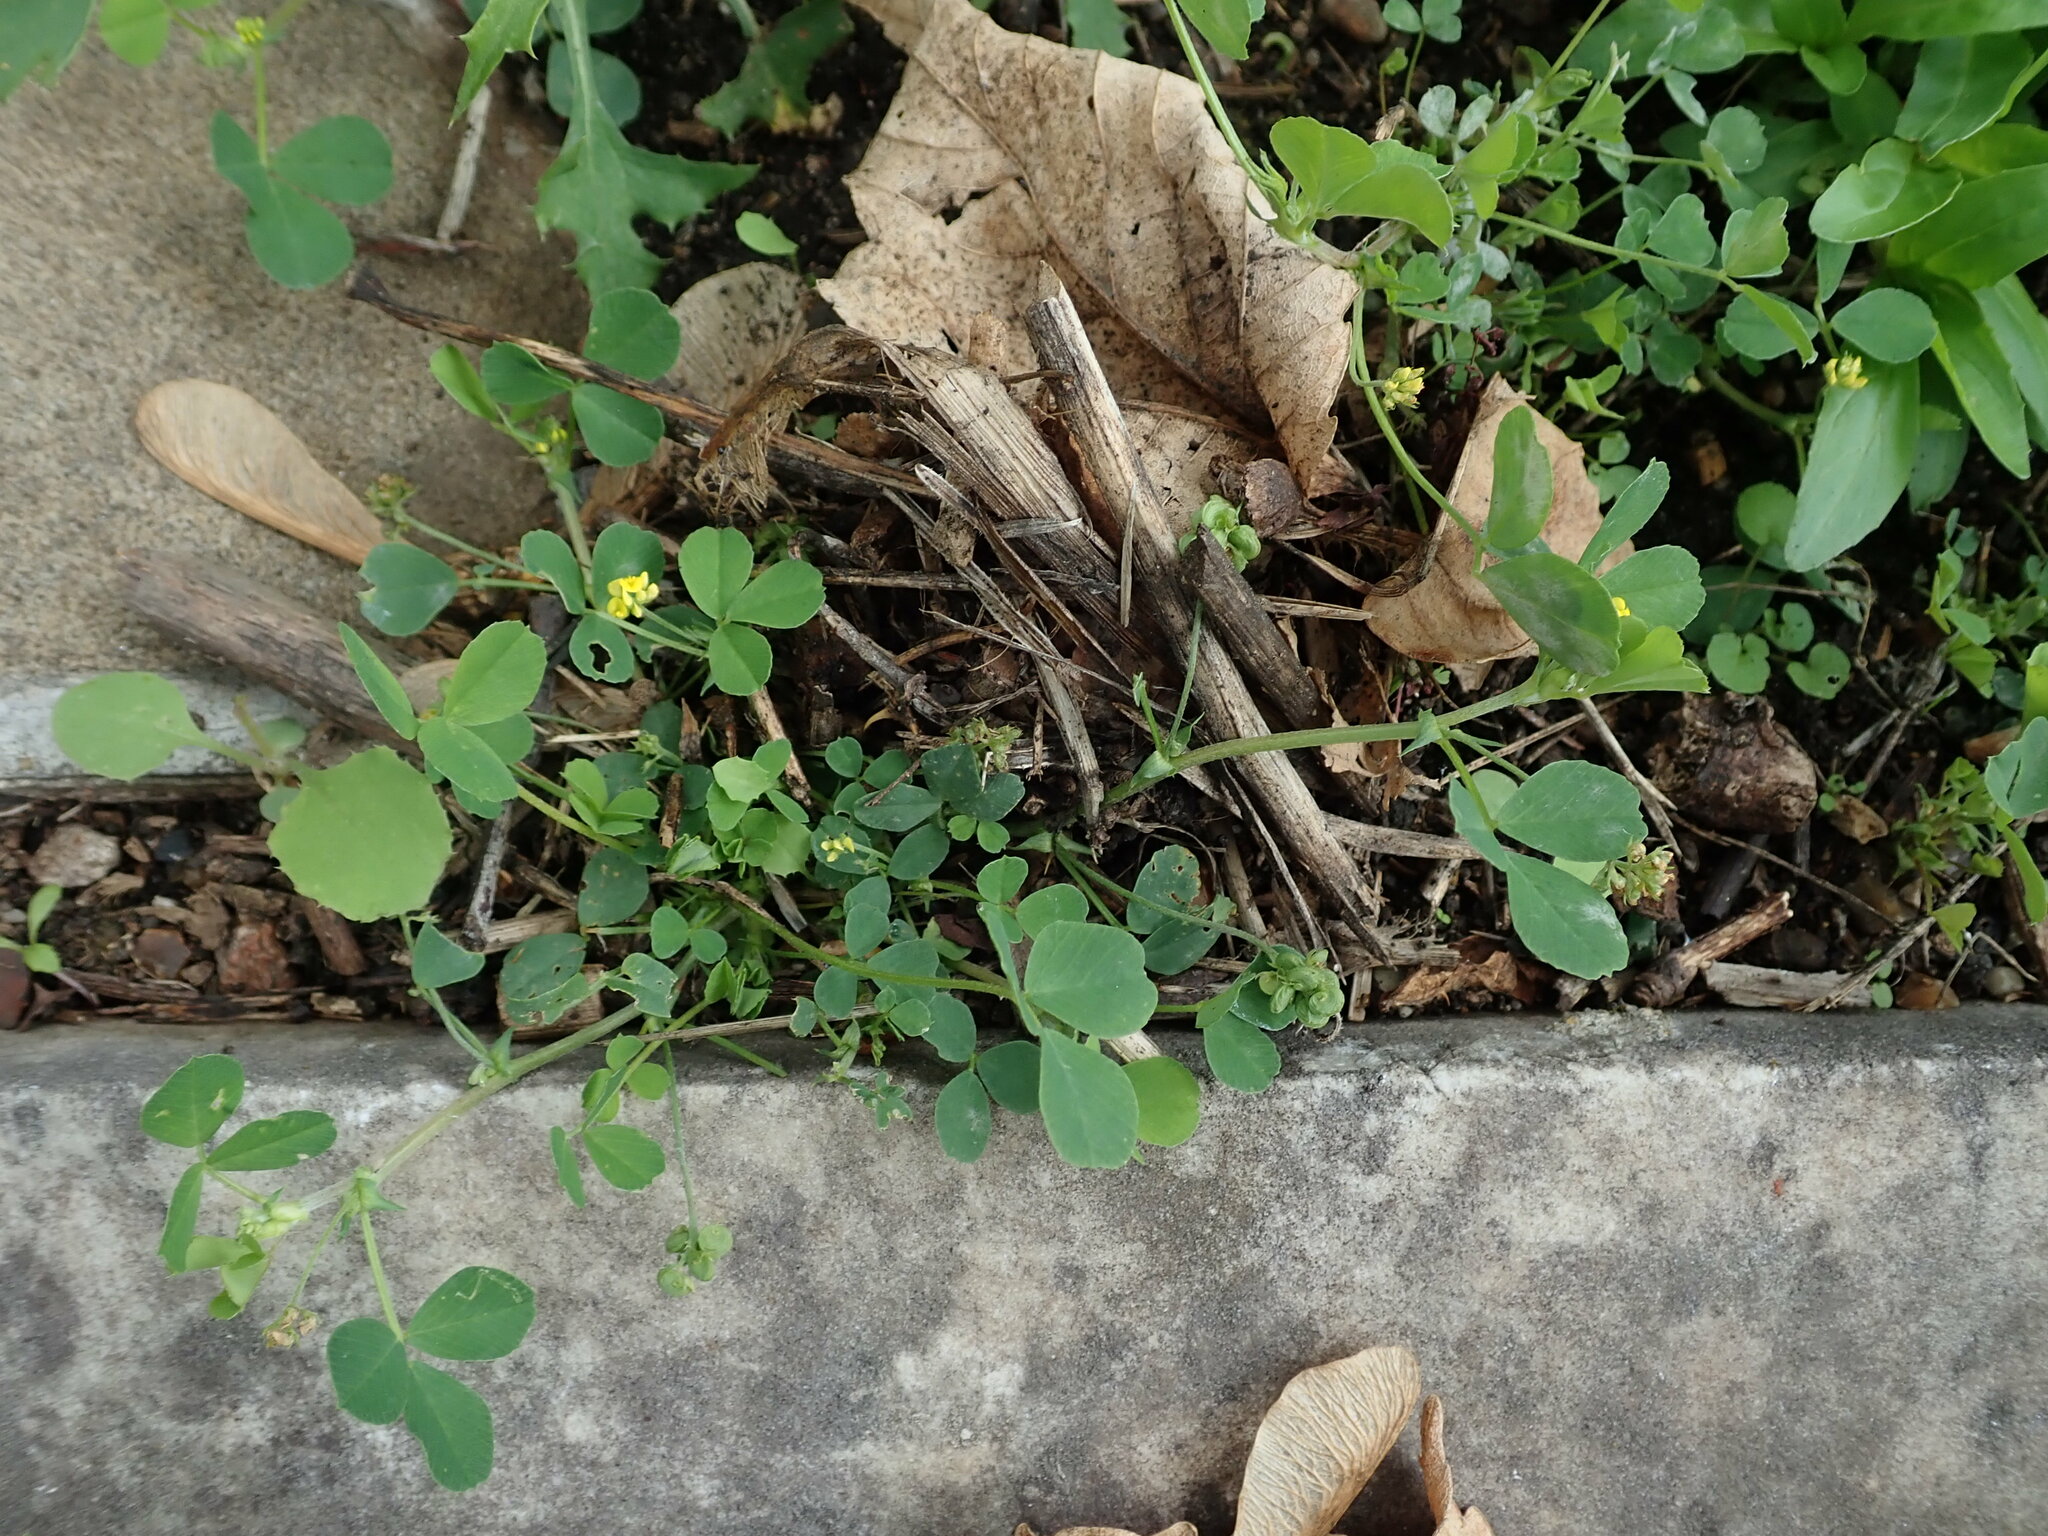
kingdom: Plantae
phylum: Tracheophyta
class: Magnoliopsida
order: Fabales
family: Fabaceae
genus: Medicago
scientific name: Medicago lupulina
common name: Black medick
